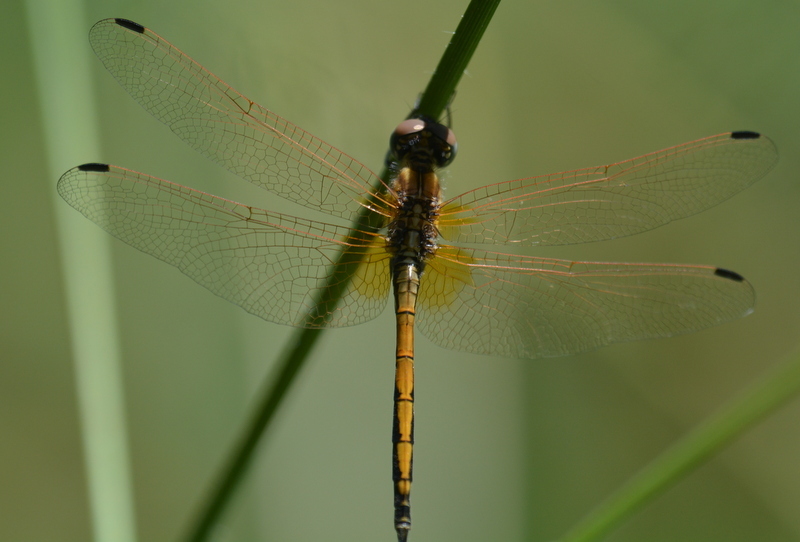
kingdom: Animalia
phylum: Arthropoda
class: Insecta
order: Odonata
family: Libellulidae
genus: Trithemis
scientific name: Trithemis arteriosa
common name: Red-veined dropwing
